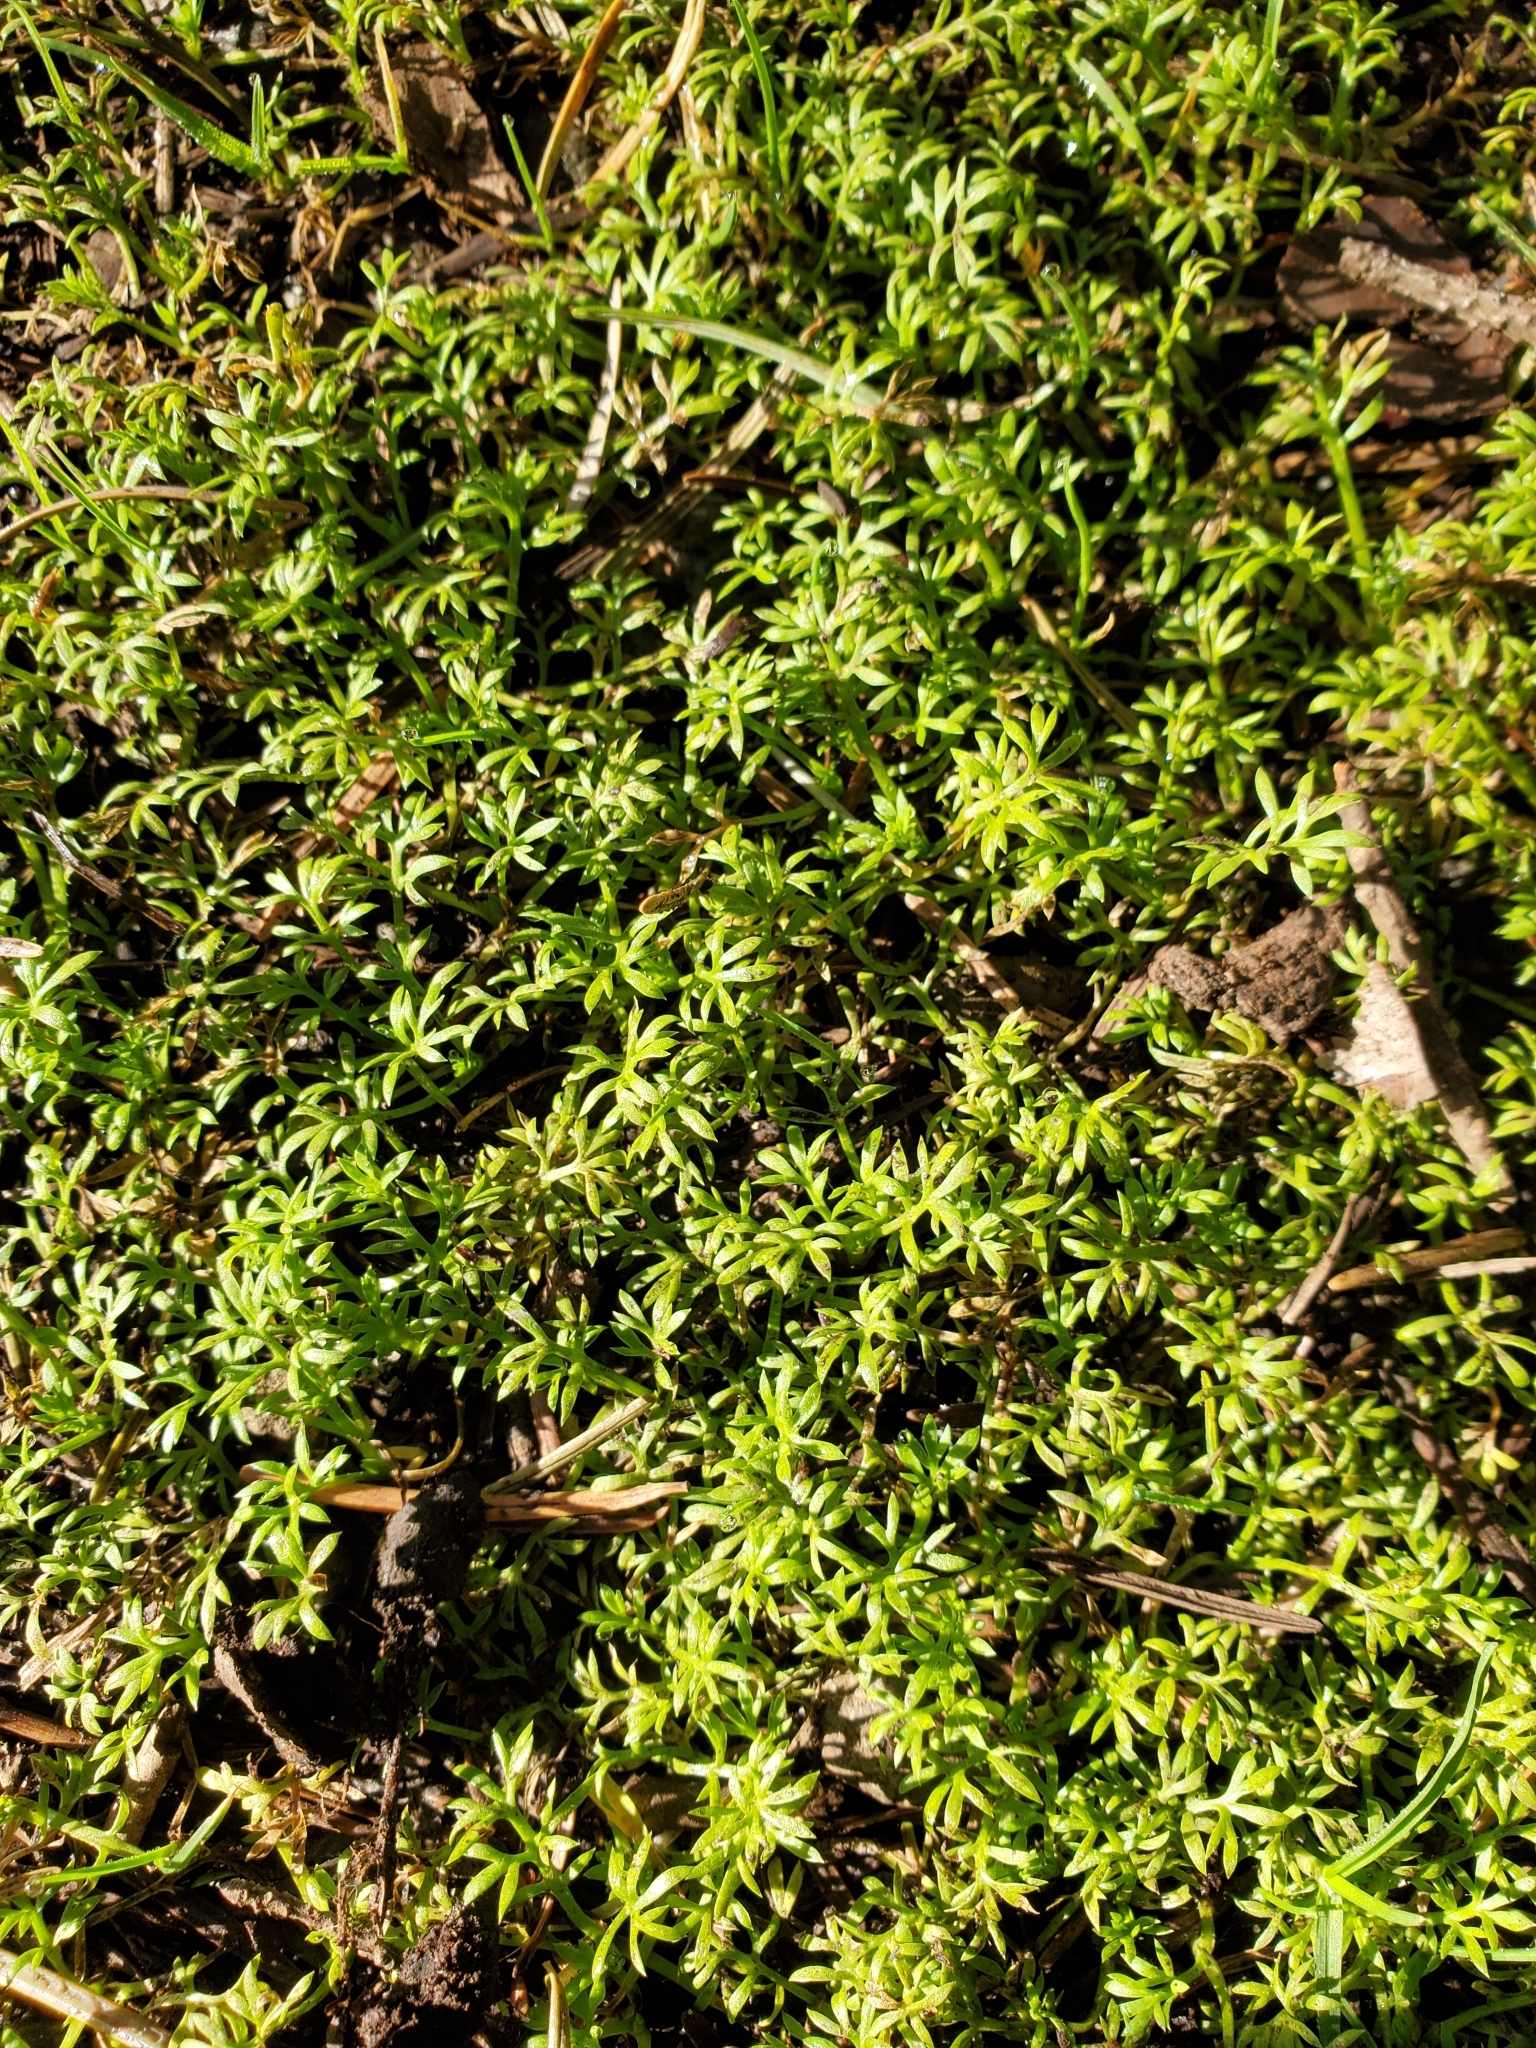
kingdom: Plantae
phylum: Tracheophyta
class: Magnoliopsida
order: Asterales
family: Asteraceae
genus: Soliva
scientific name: Soliva sessilis
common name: Field burrweed
